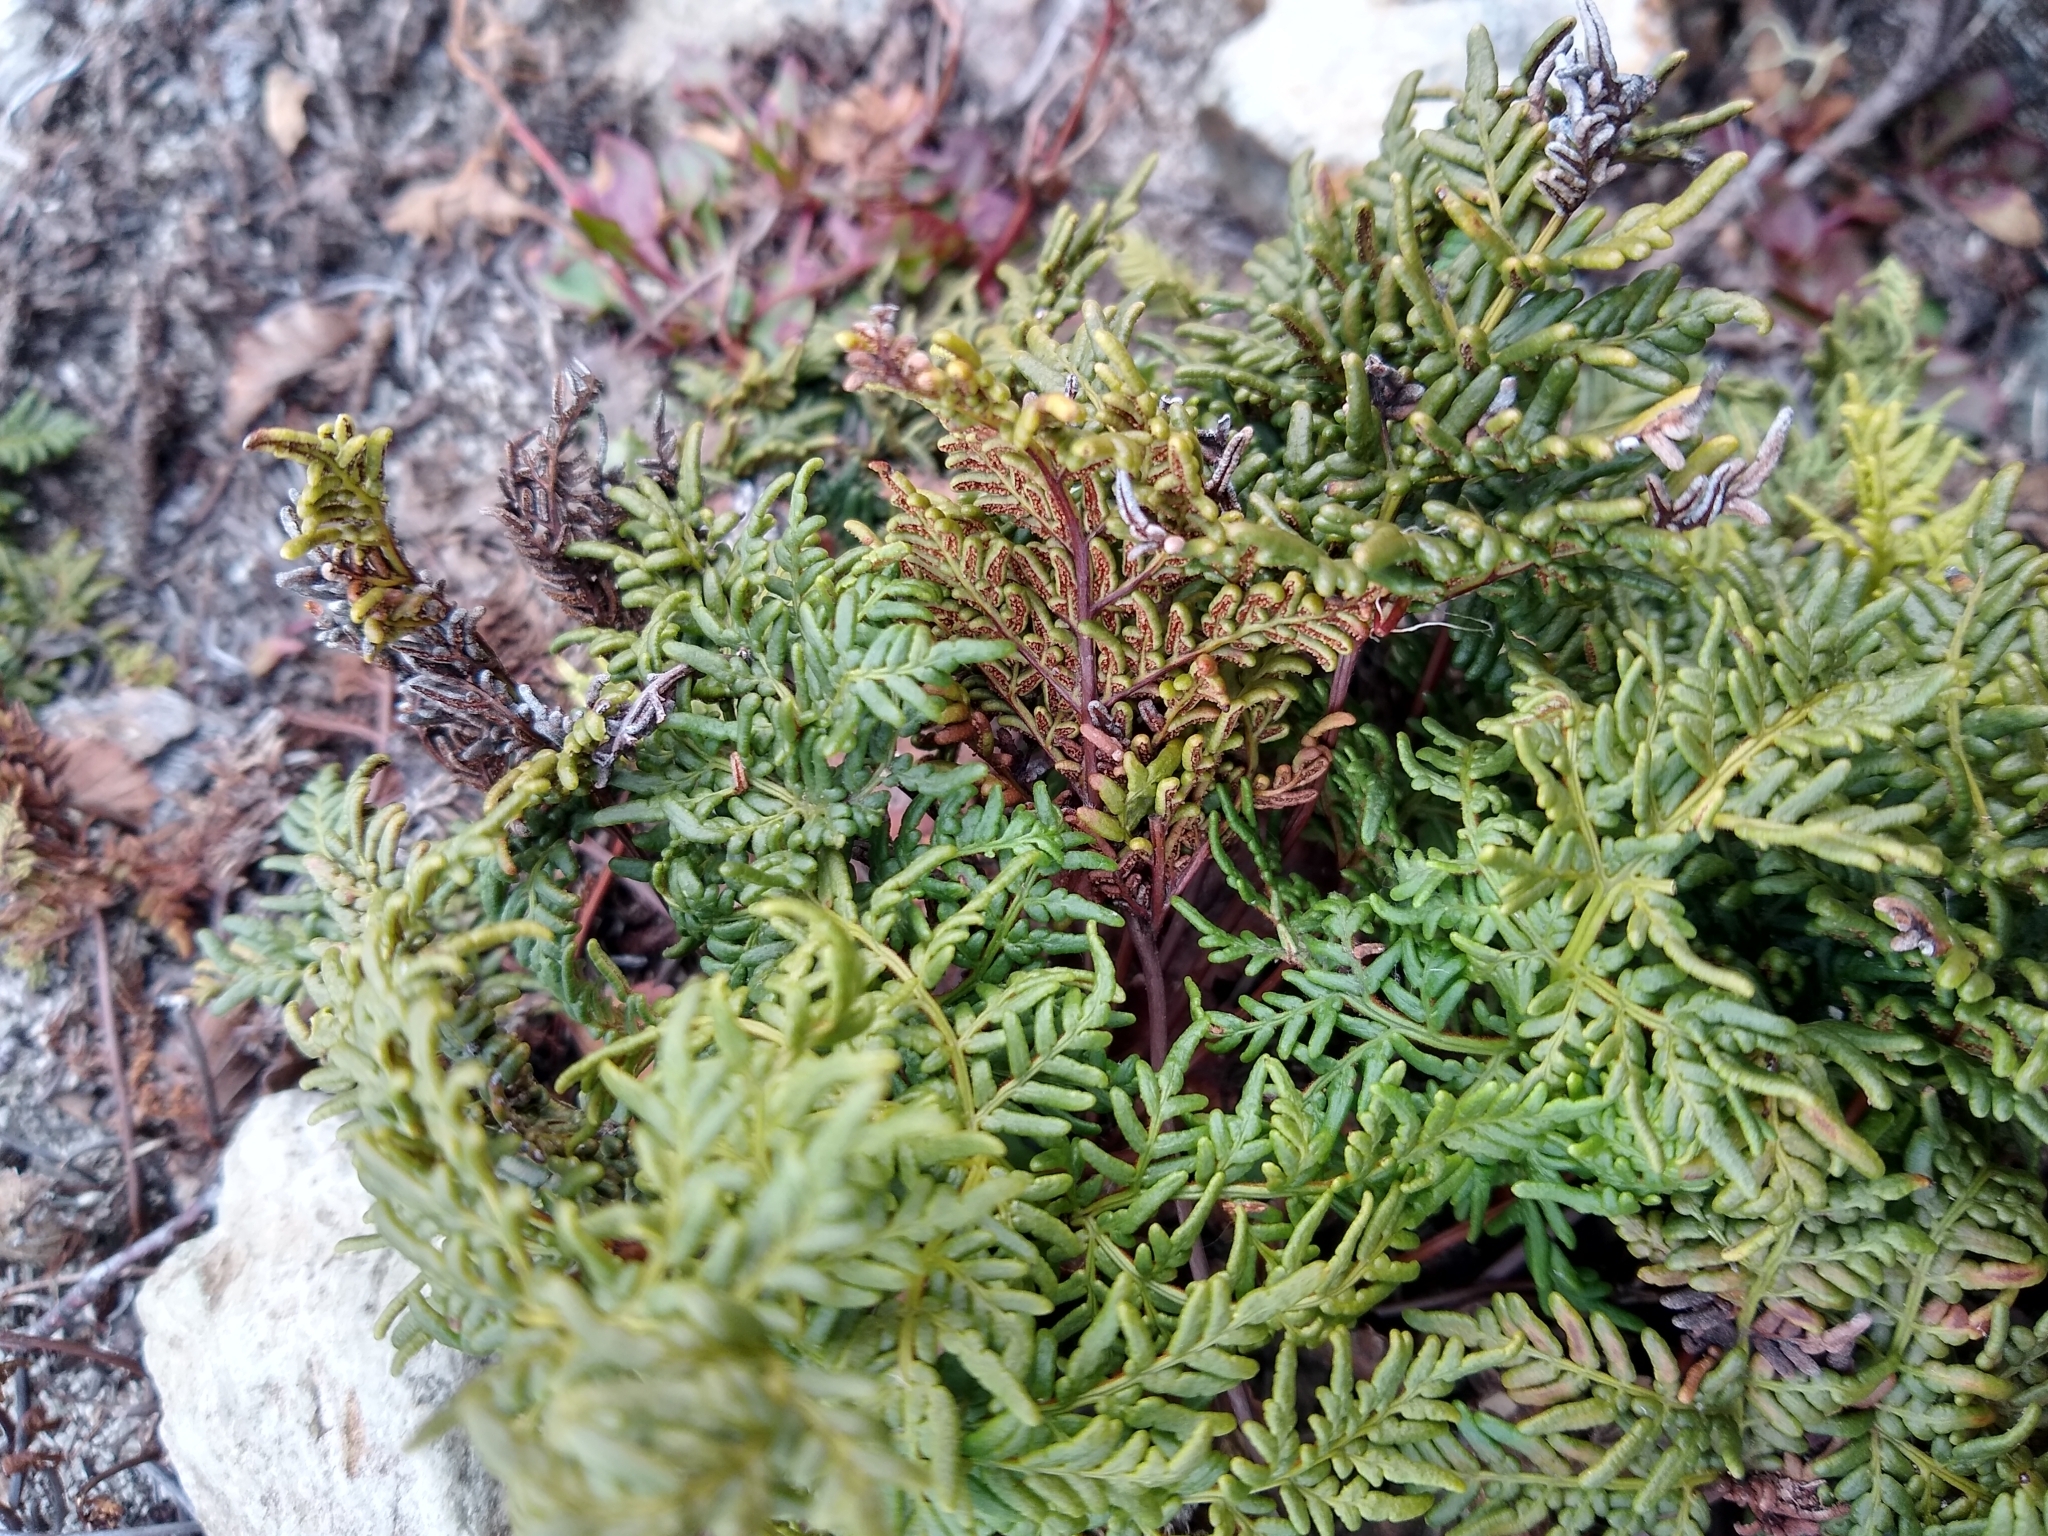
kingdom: Plantae
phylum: Tracheophyta
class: Polypodiopsida
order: Polypodiales
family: Pteridaceae
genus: Cheilanthes
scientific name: Cheilanthes glauca
